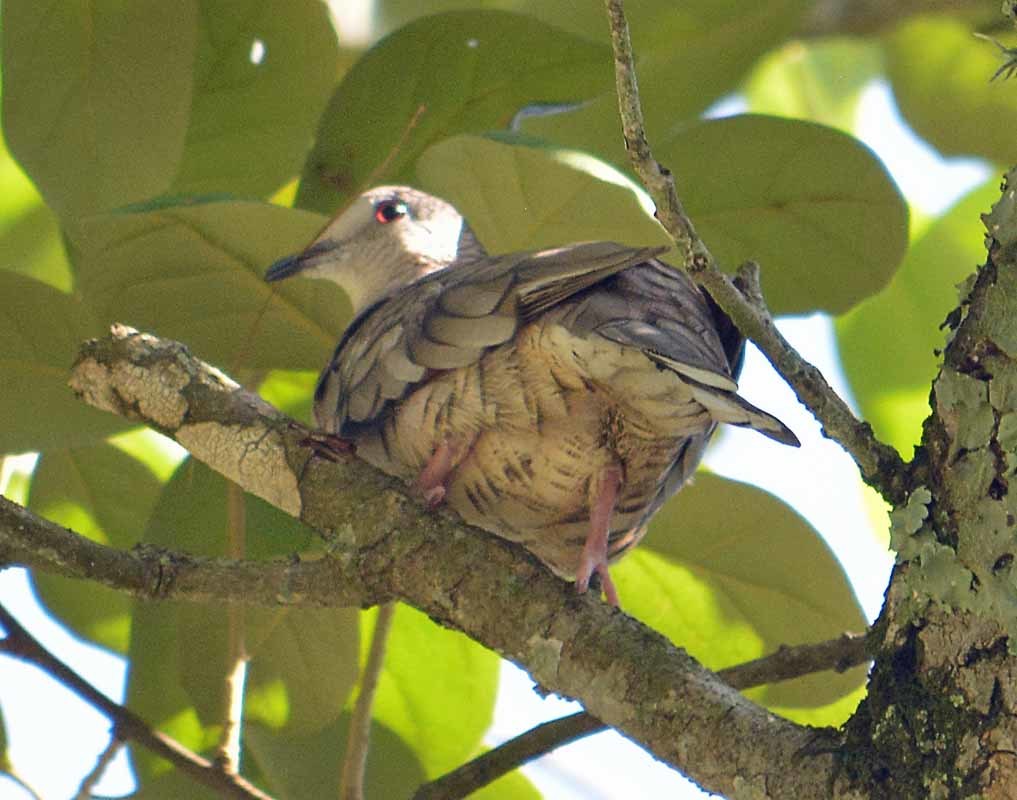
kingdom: Animalia
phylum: Chordata
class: Aves
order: Columbiformes
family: Columbidae
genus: Columbina
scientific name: Columbina inca
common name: Inca dove
